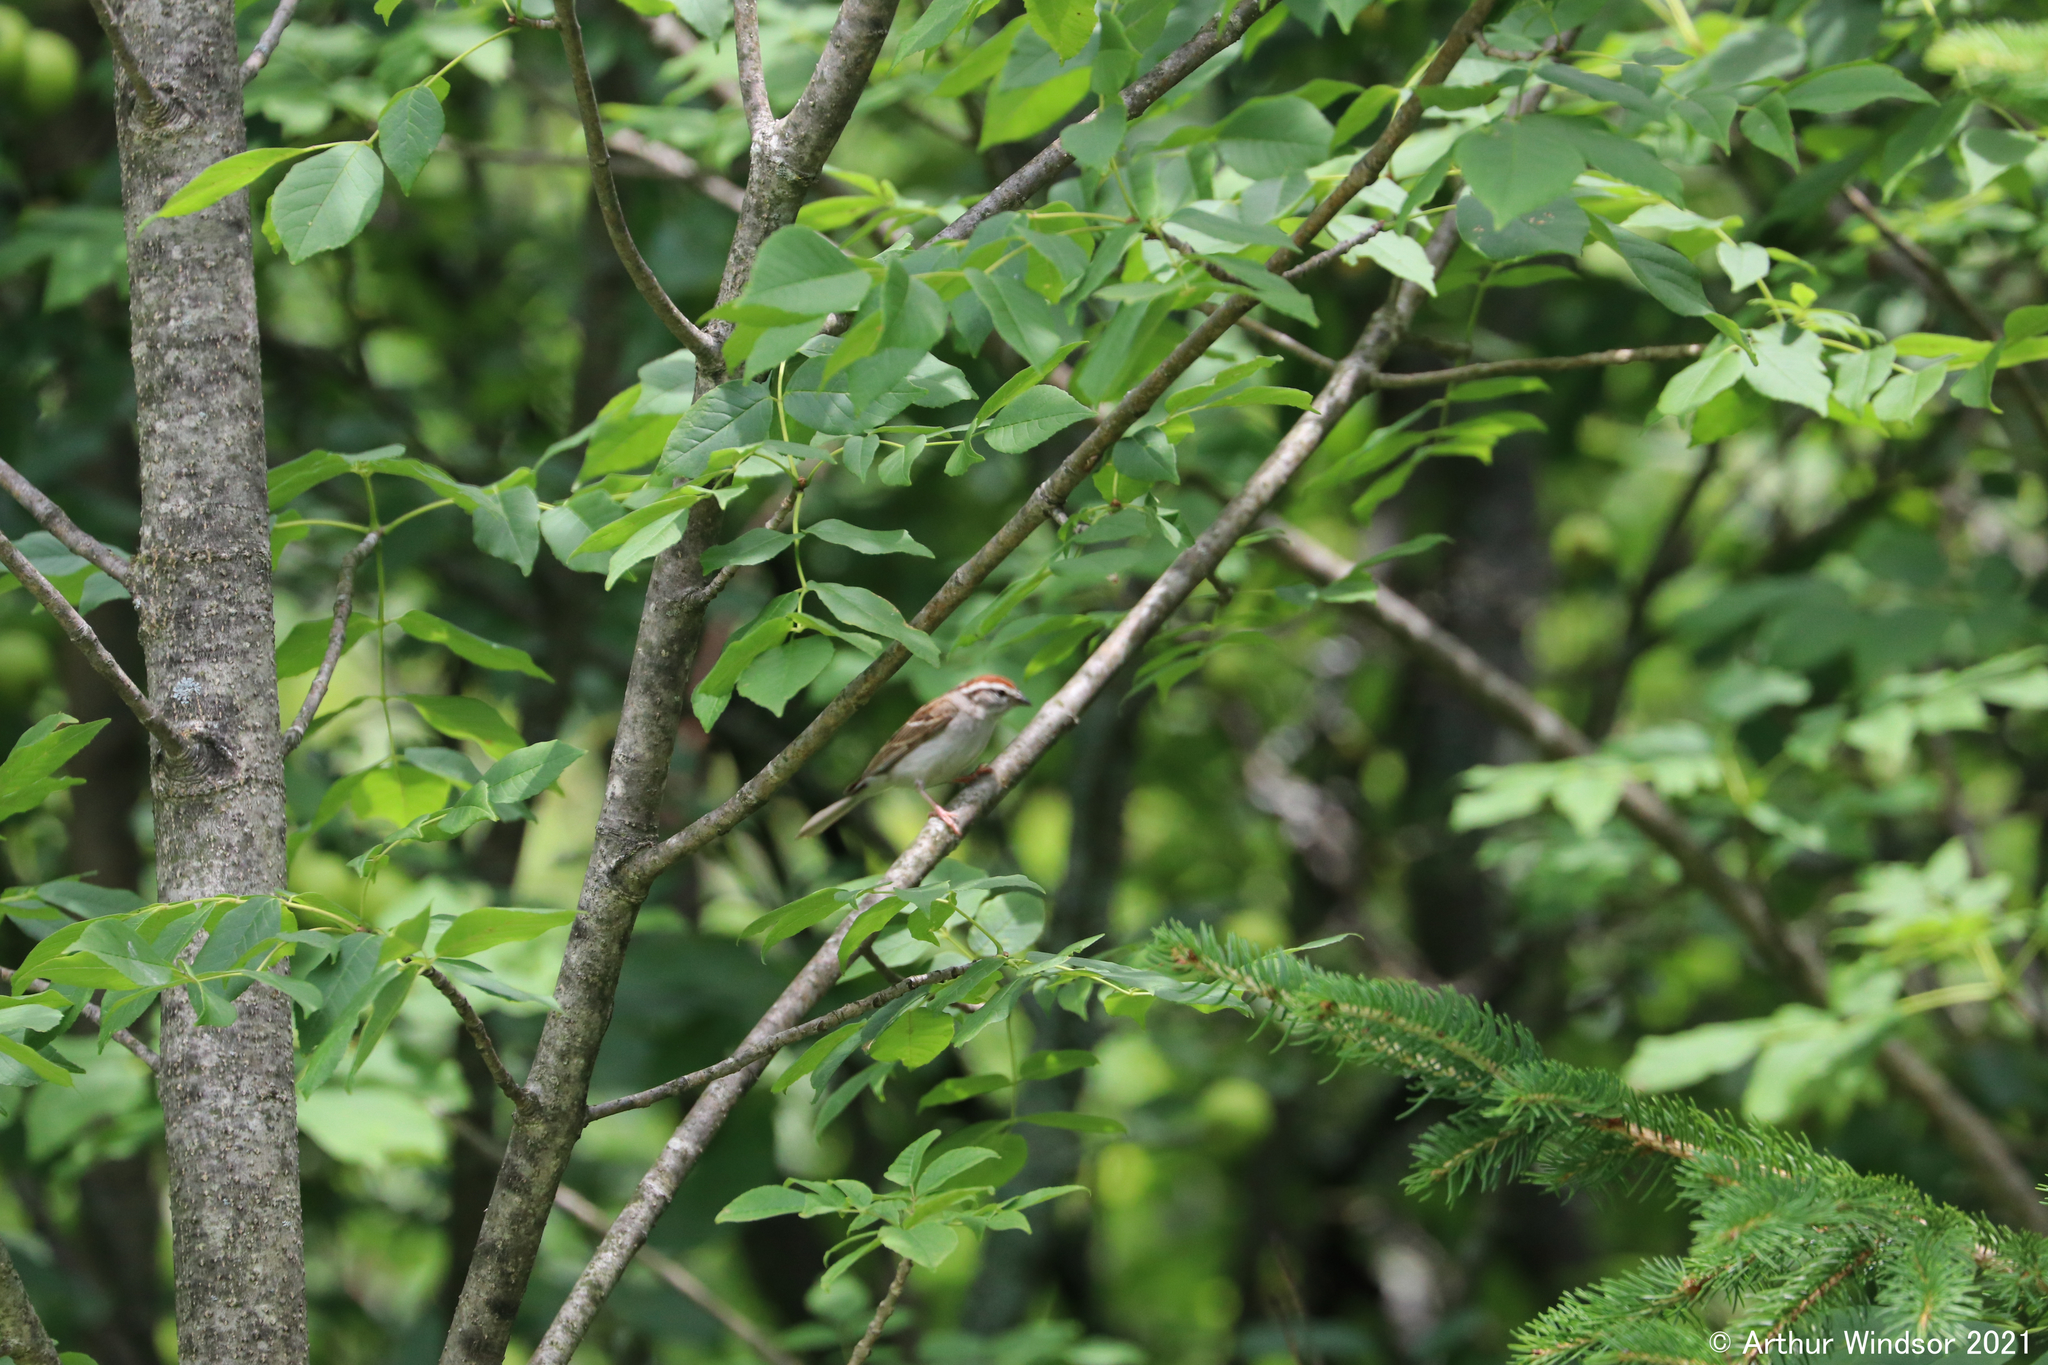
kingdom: Animalia
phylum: Chordata
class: Aves
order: Passeriformes
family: Passerellidae
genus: Spizella
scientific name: Spizella passerina
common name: Chipping sparrow
